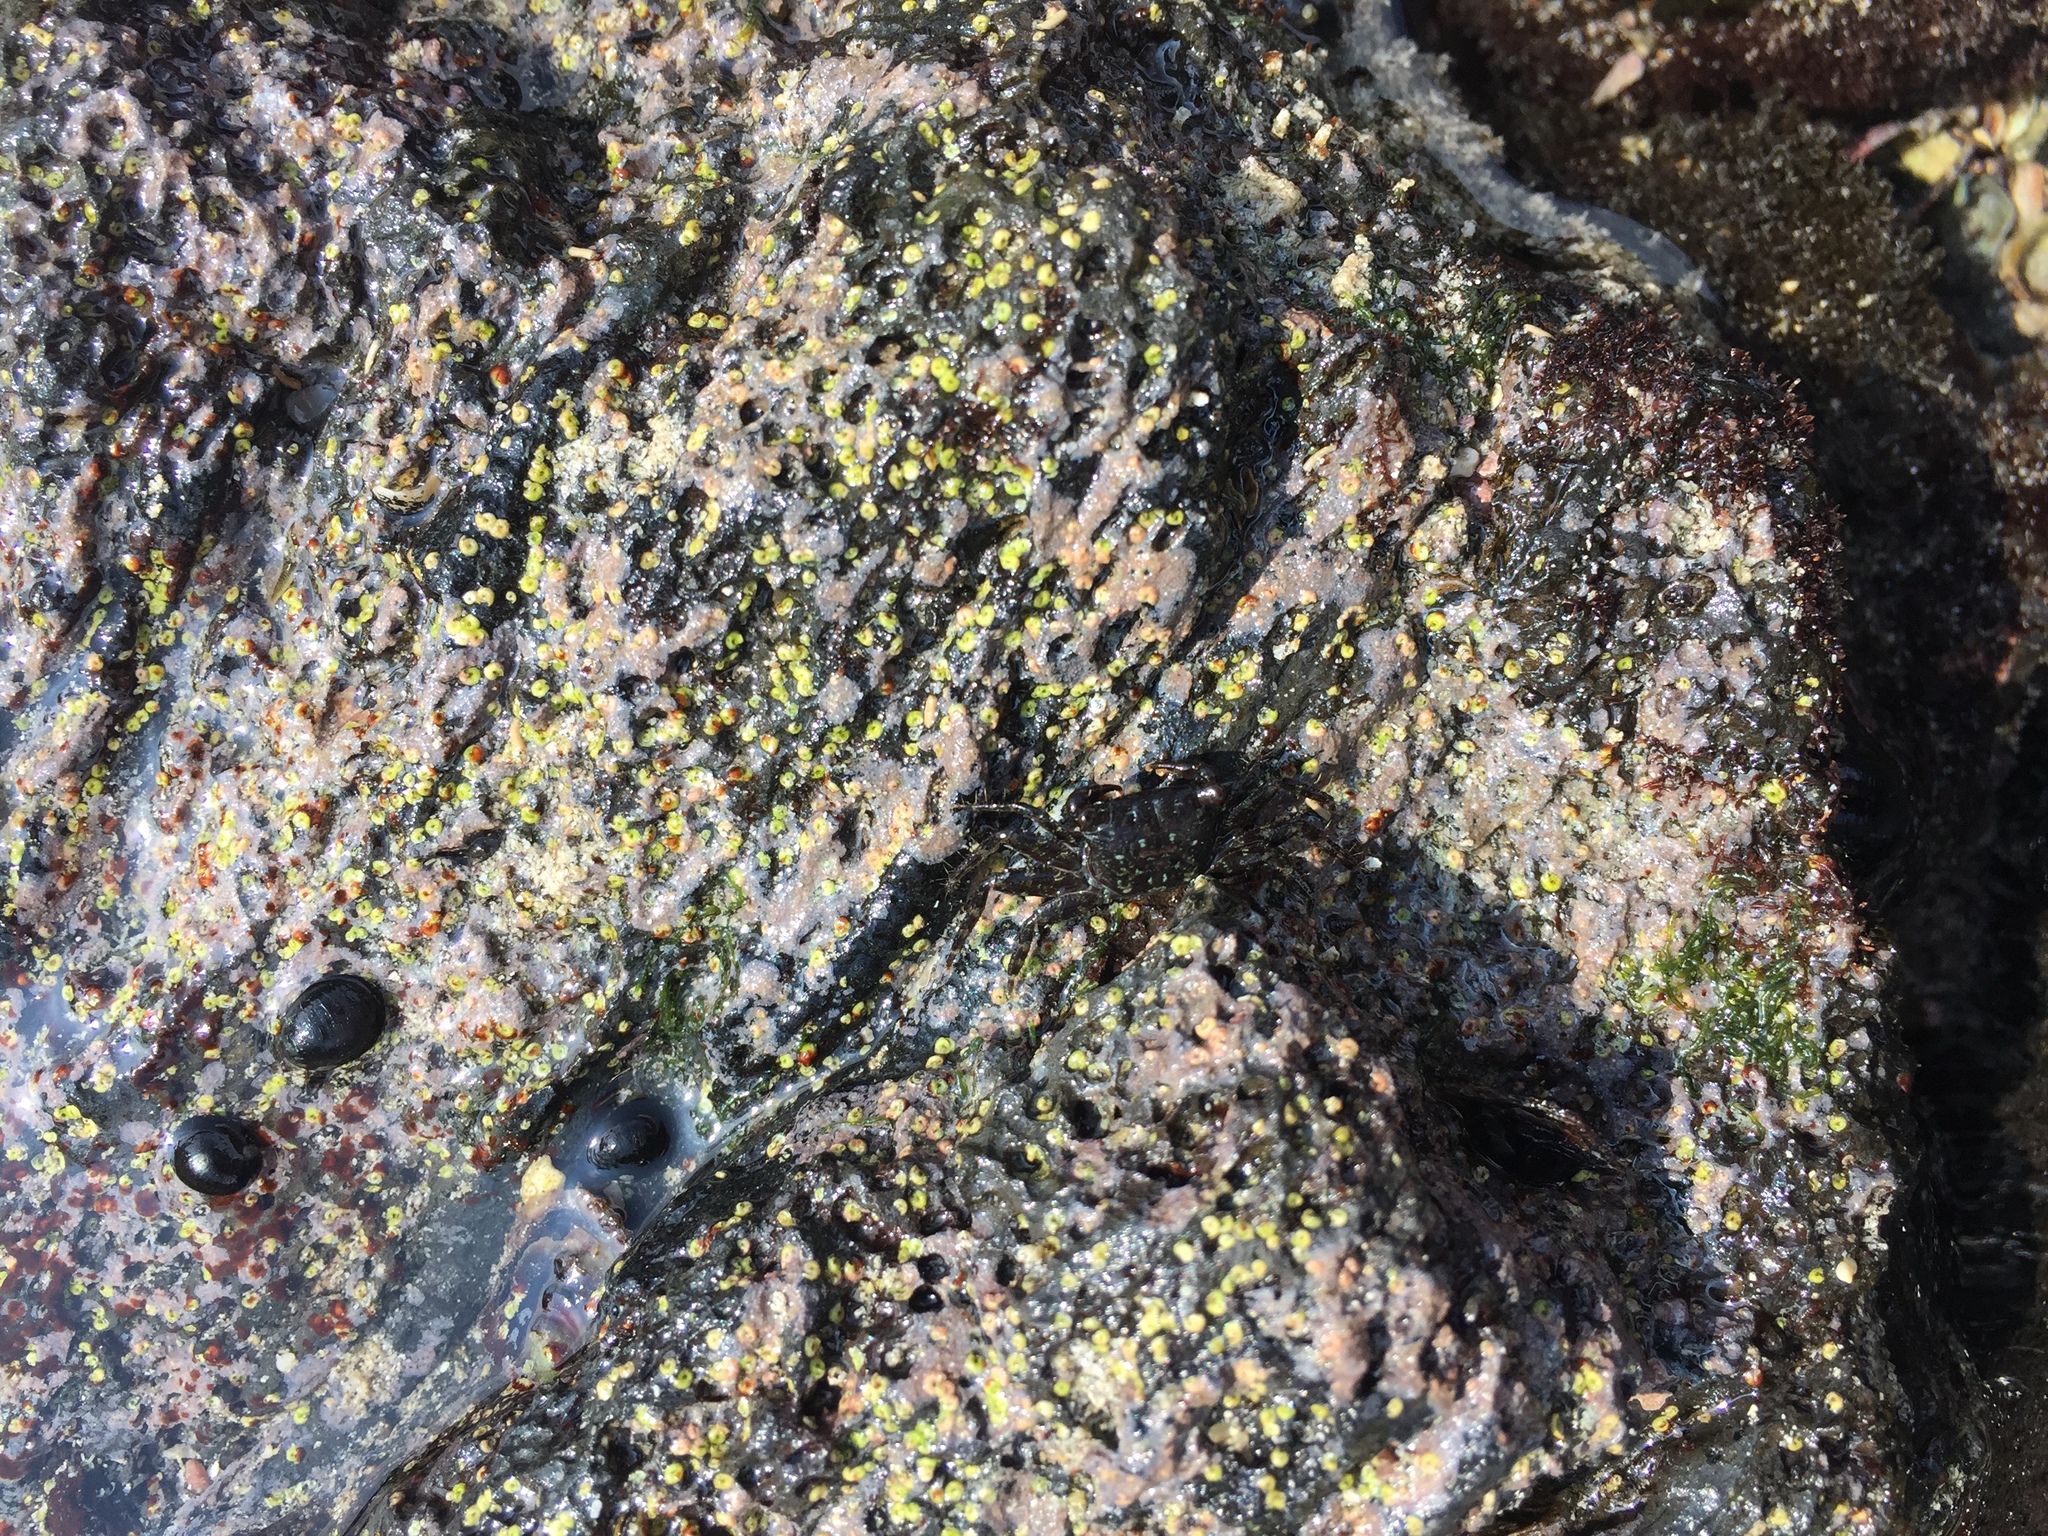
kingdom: Animalia
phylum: Arthropoda
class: Malacostraca
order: Decapoda
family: Grapsidae
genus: Grapsus
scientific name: Grapsus tenuicrustatus
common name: Natal lightfoot crab
